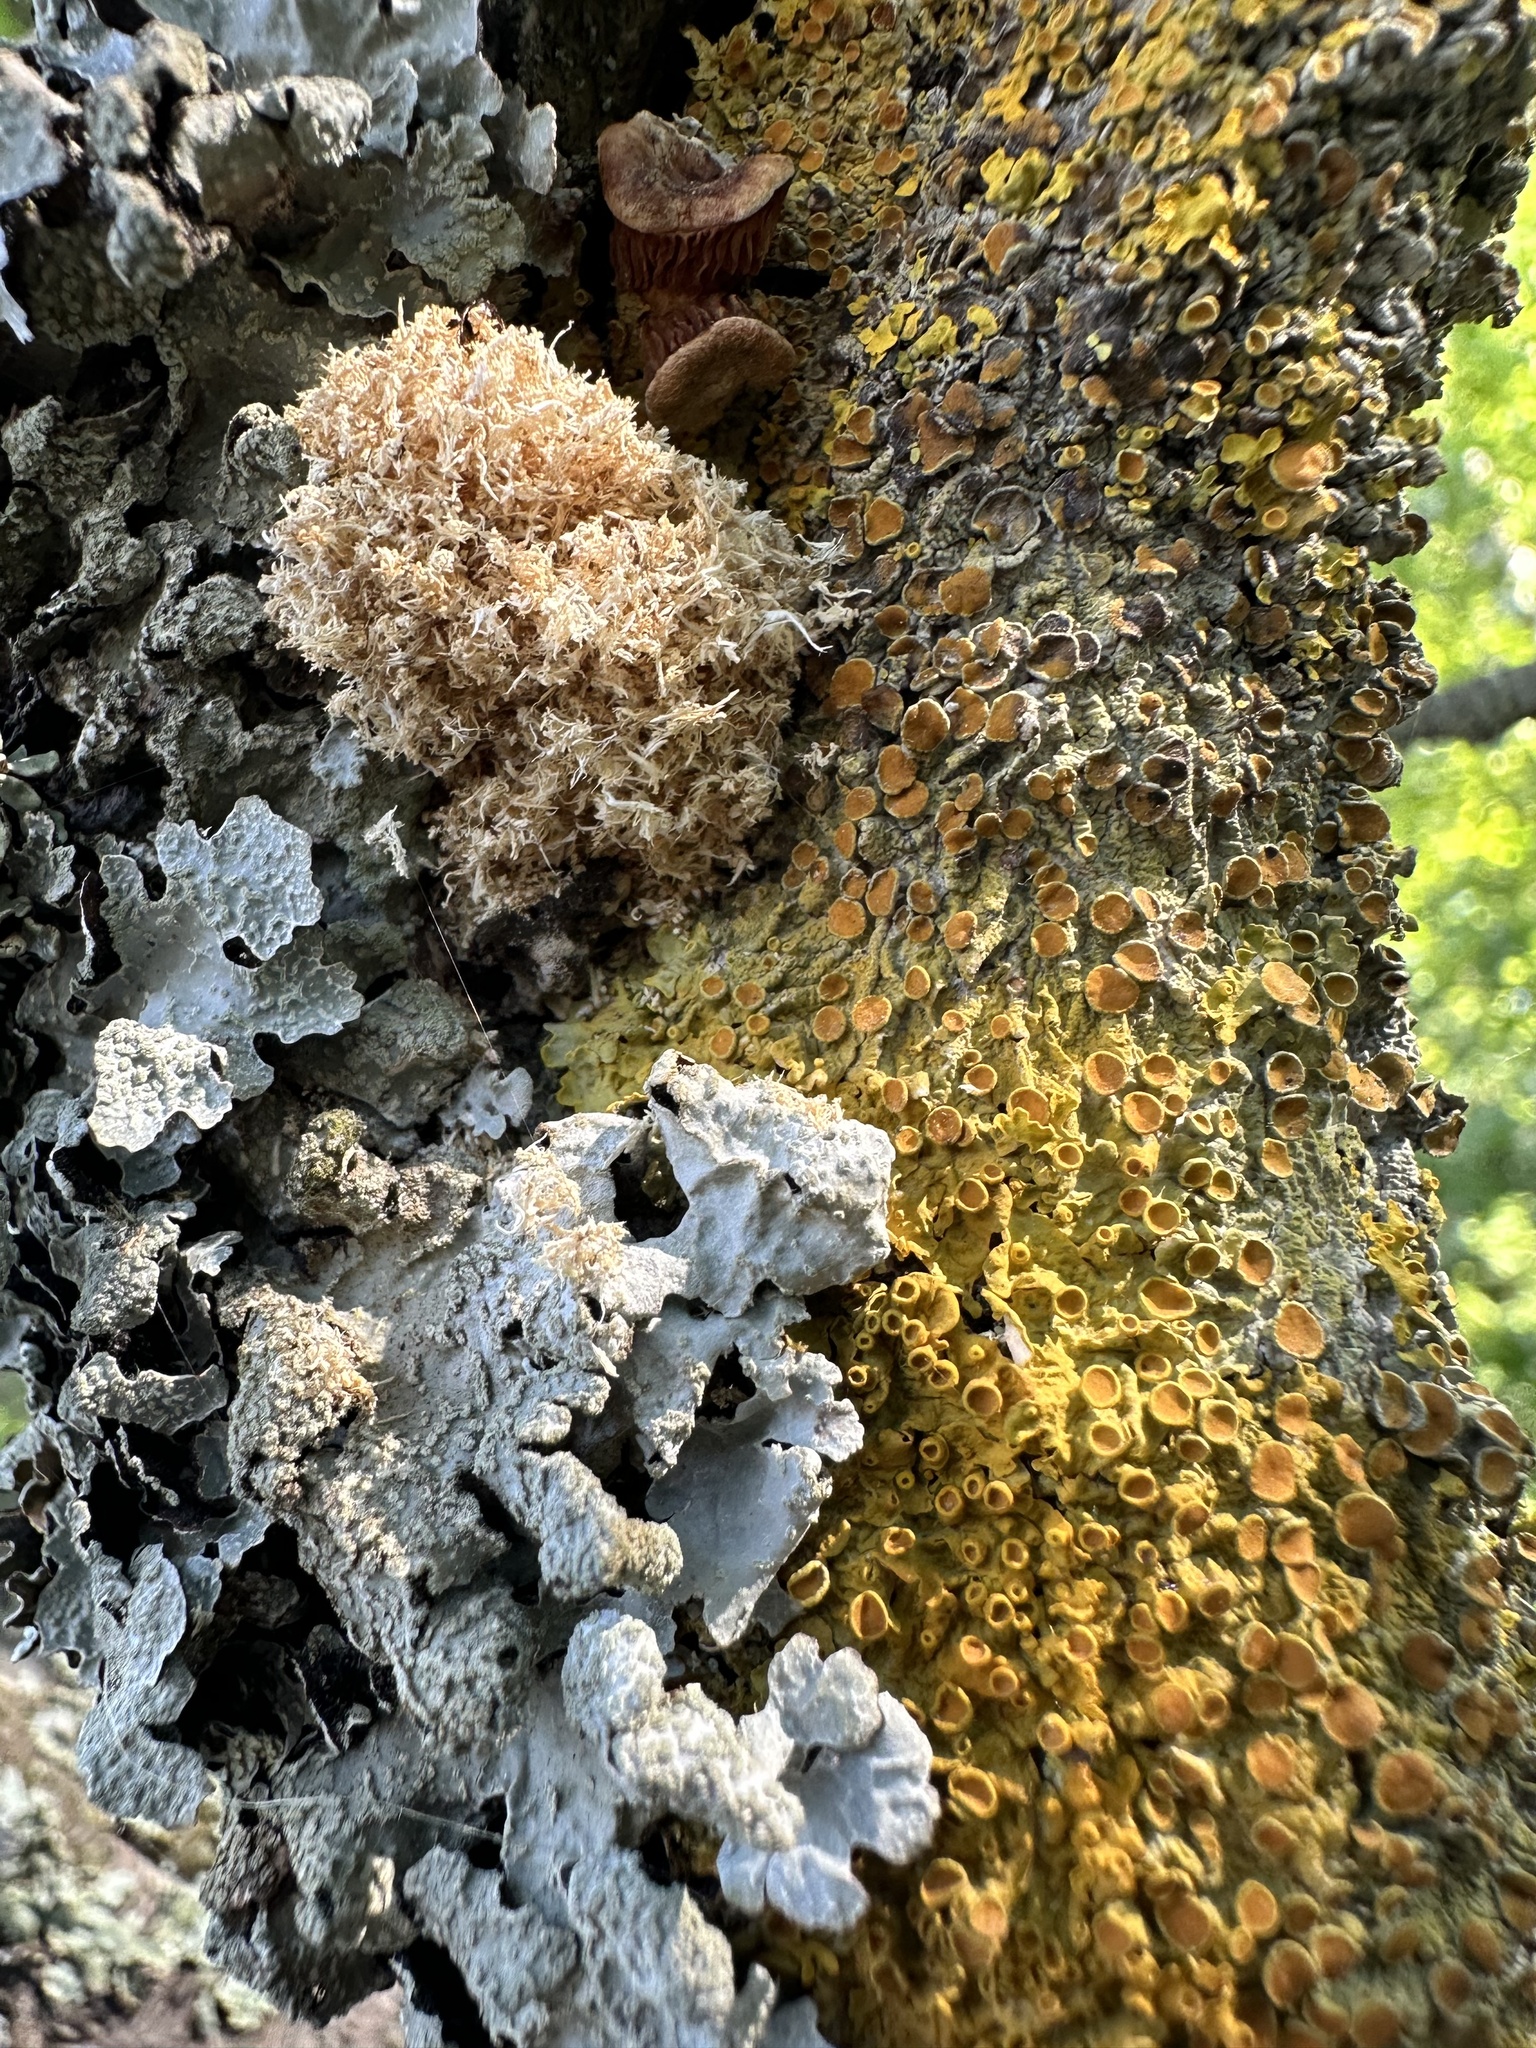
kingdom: Fungi
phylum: Ascomycota
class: Lecanoromycetes
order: Lecanorales
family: Parmeliaceae
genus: Parmelia
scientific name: Parmelia sulcata
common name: Netted shield lichen
